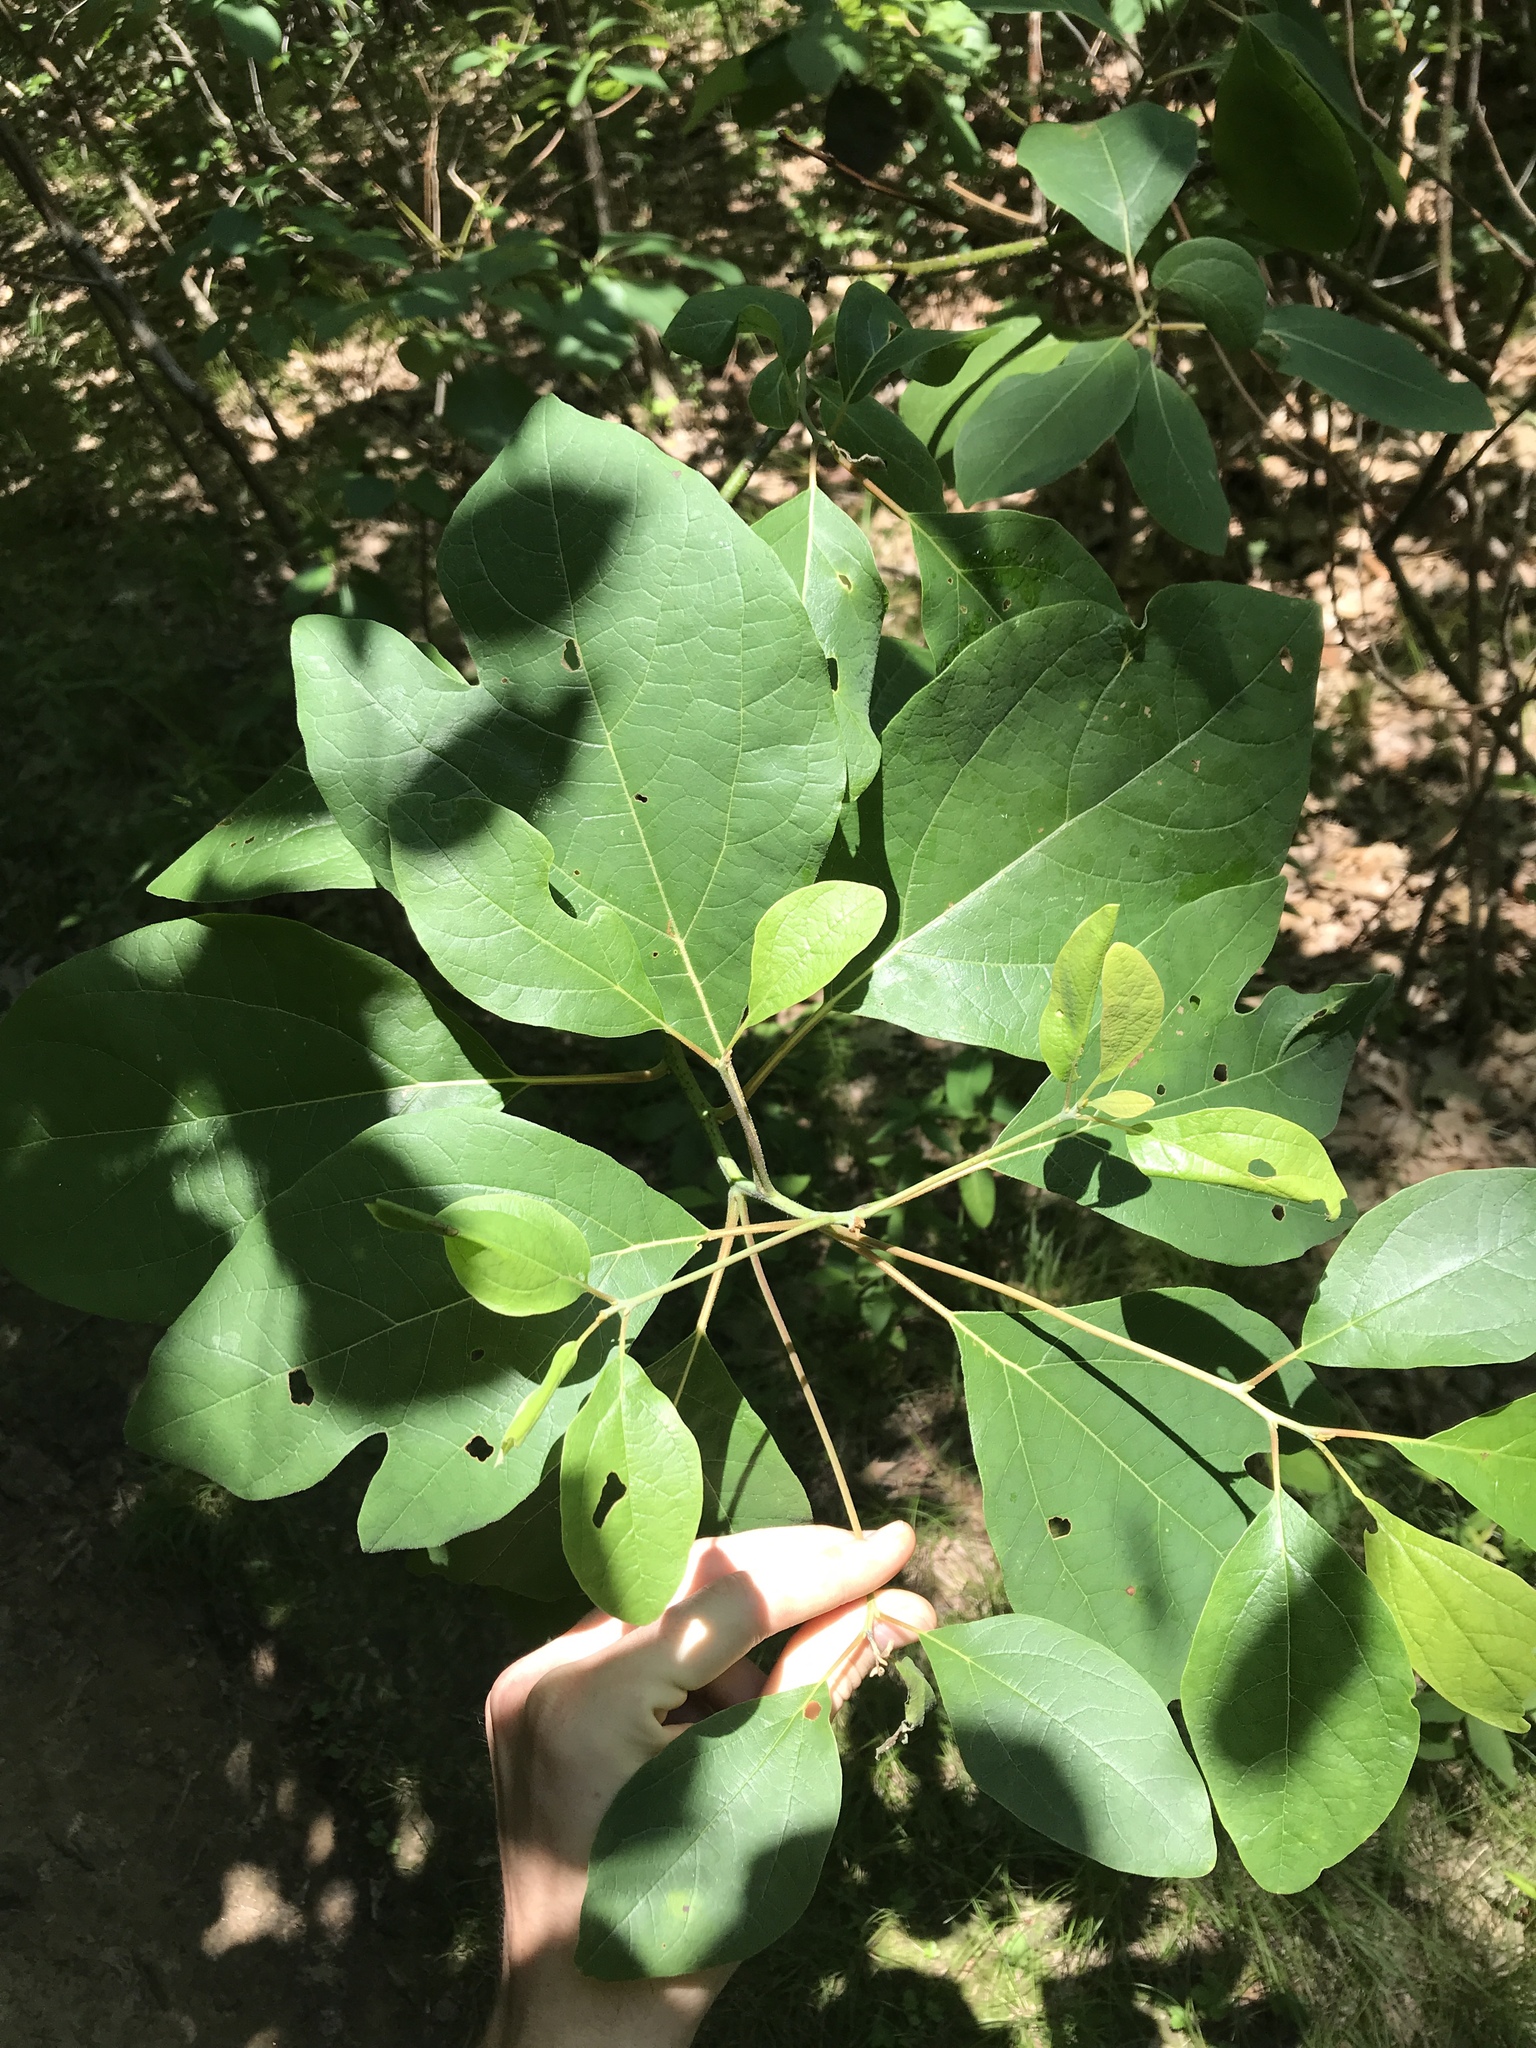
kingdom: Plantae
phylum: Tracheophyta
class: Magnoliopsida
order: Laurales
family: Lauraceae
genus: Sassafras
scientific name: Sassafras albidum
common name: Sassafras
